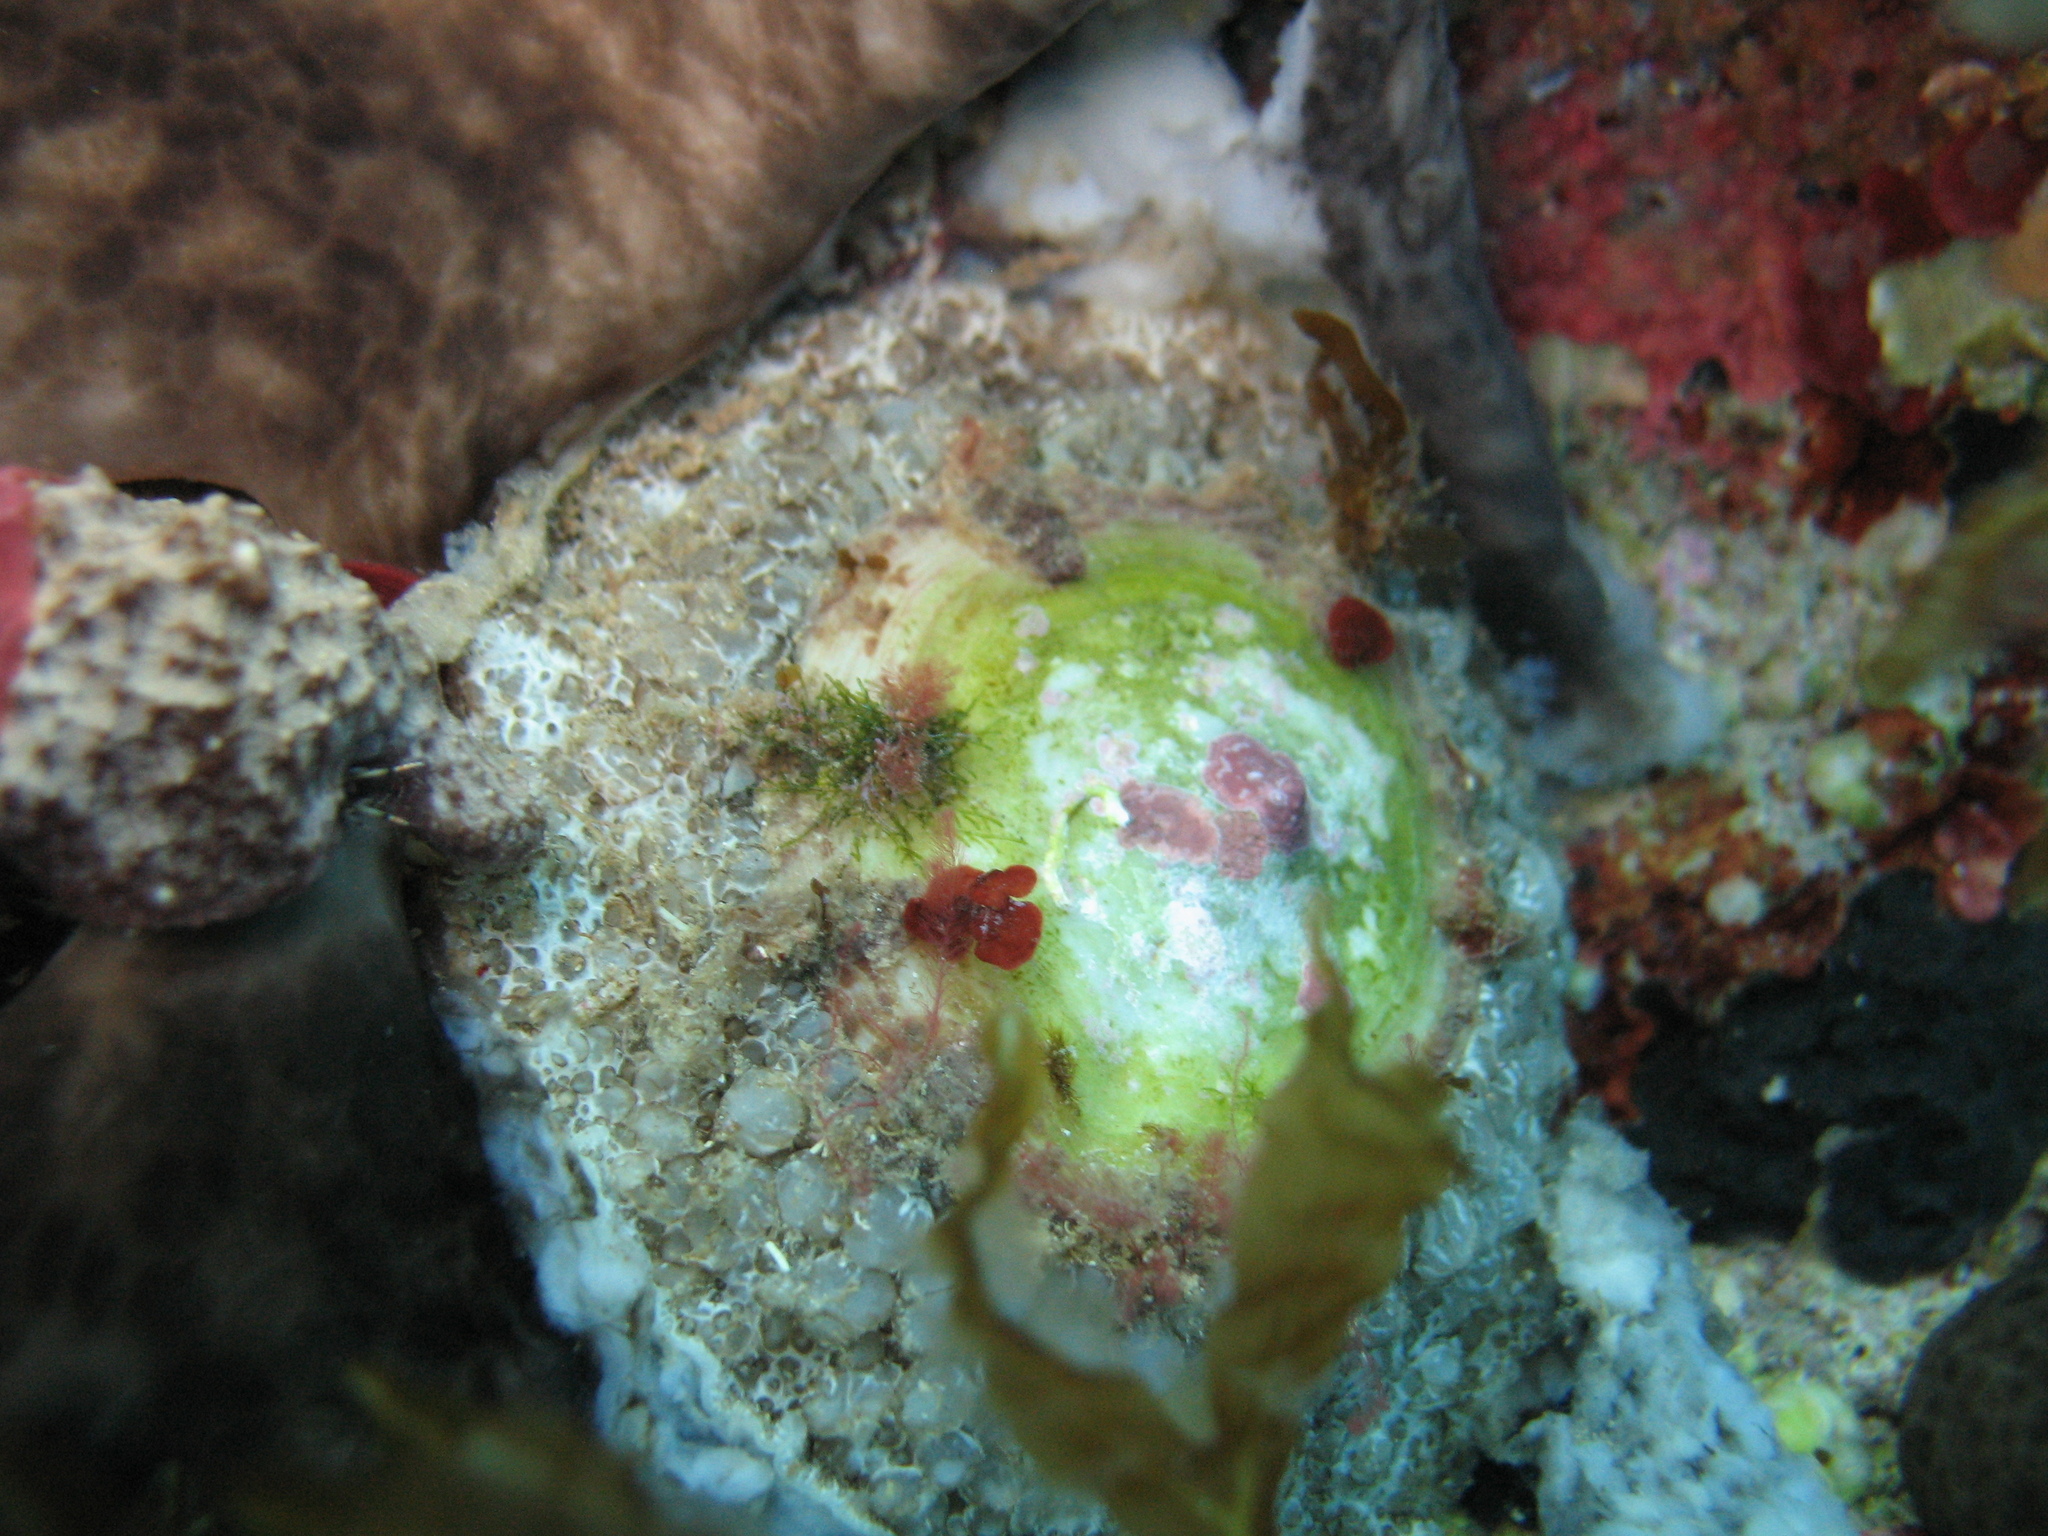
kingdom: Animalia
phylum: Mollusca
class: Gastropoda
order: Umbraculida
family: Umbraculidae
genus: Umbraculum
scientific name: Umbraculum umbraculum
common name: Atlantic umbrella slug
